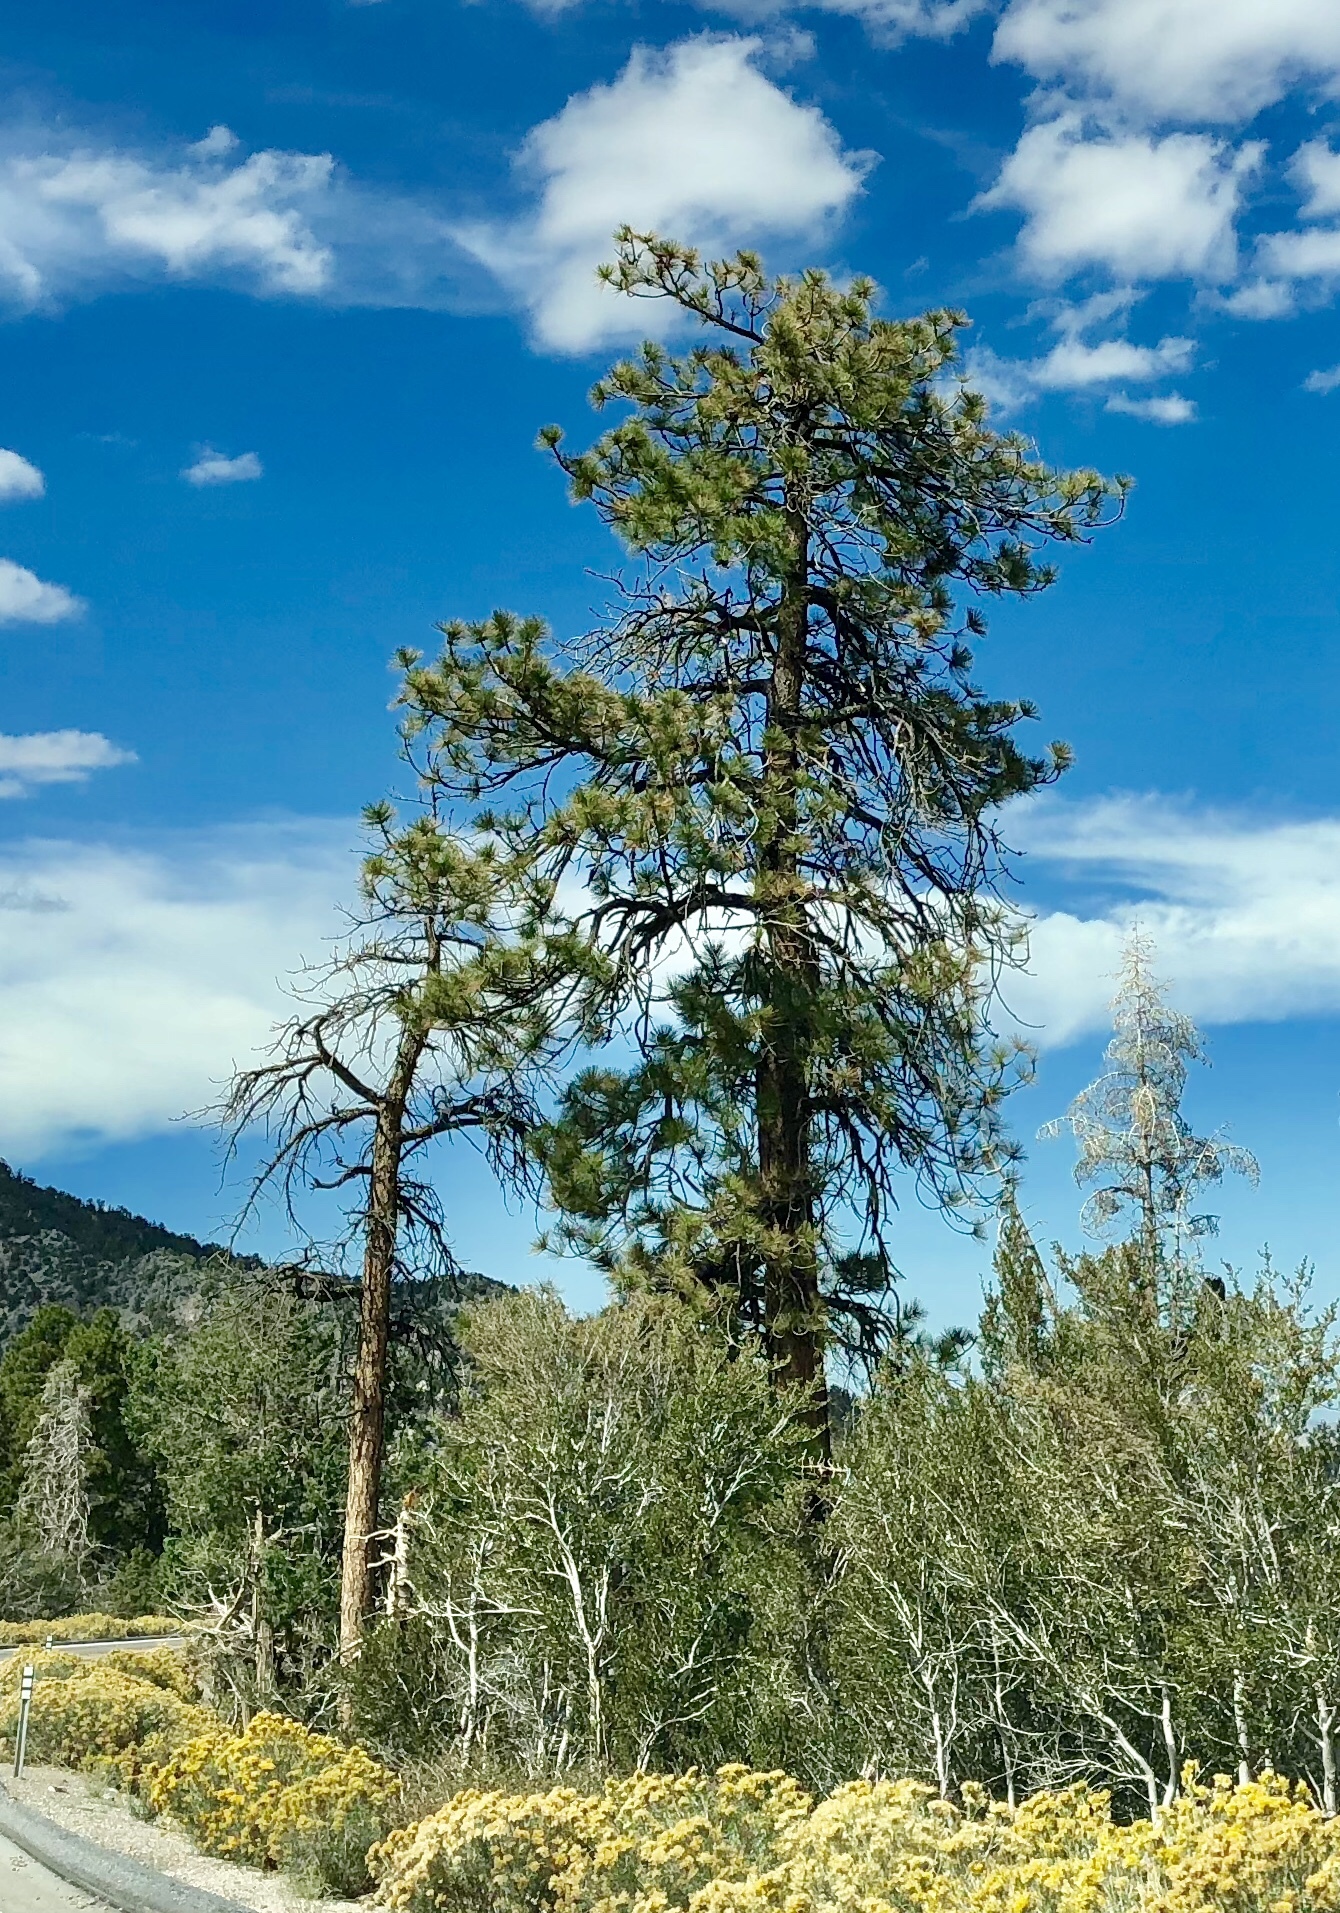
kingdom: Plantae
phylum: Tracheophyta
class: Pinopsida
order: Pinales
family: Pinaceae
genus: Pinus
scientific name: Pinus ponderosa
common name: Western yellow-pine
